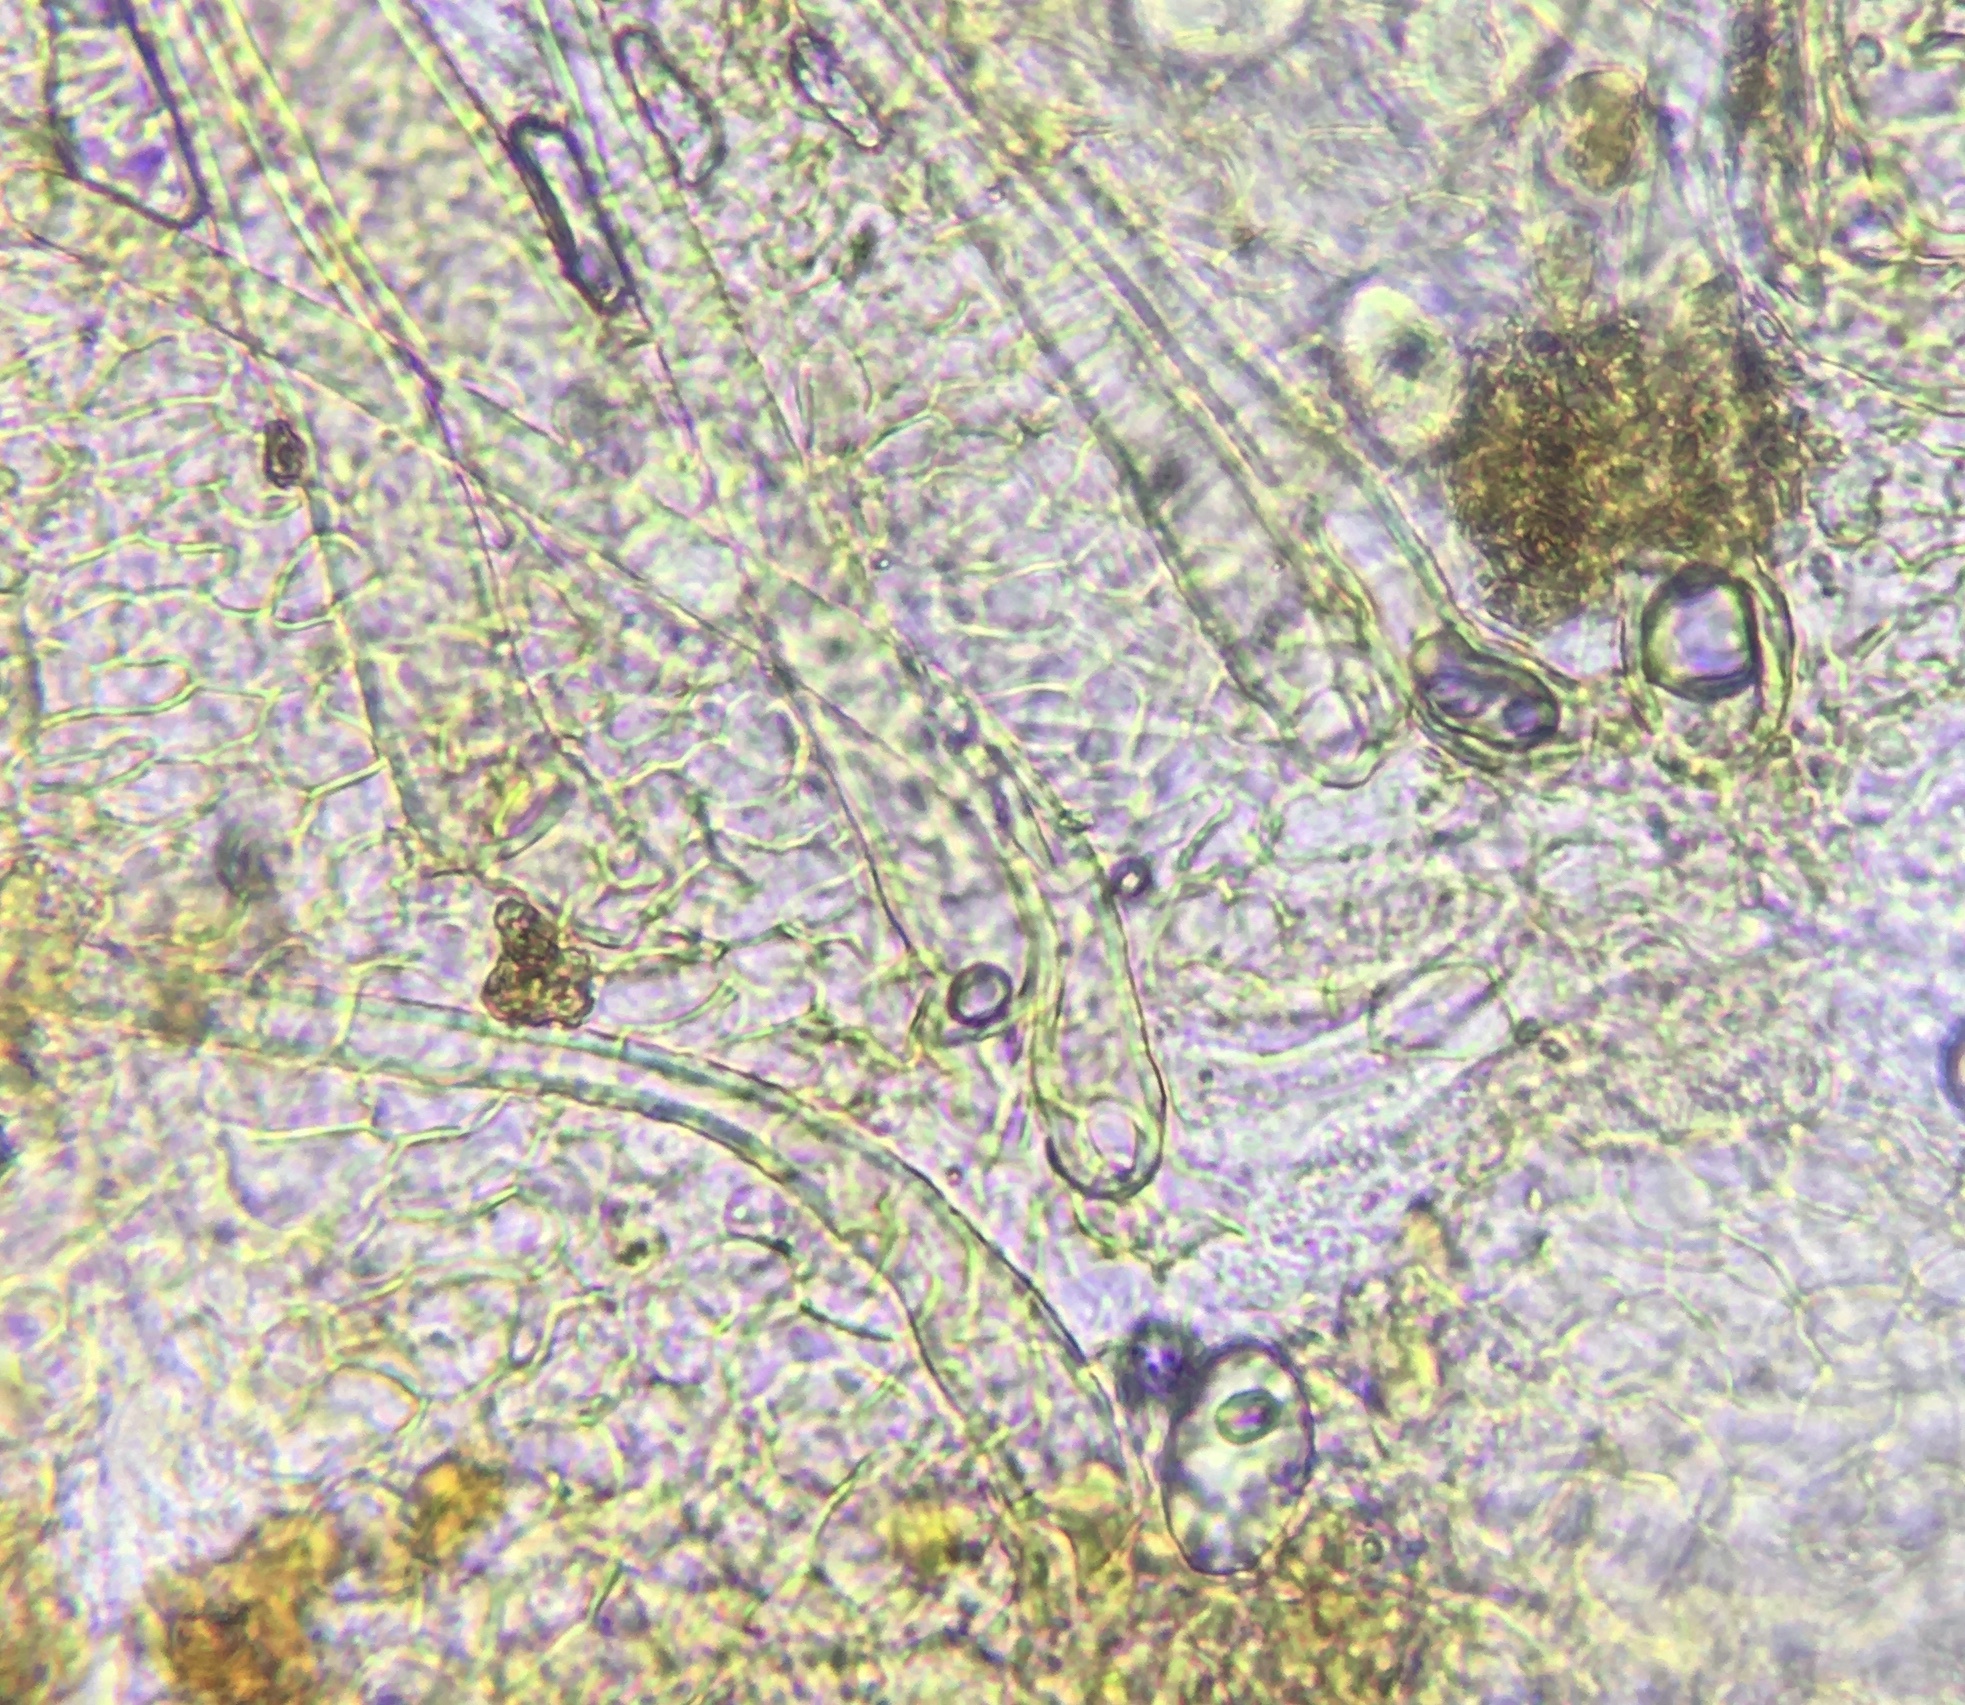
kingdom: Fungi
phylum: Ascomycota
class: Pezizomycetes
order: Pezizales
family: Ascodesmidaceae
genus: Lasiobolus
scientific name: Lasiobolus lasioboloides
